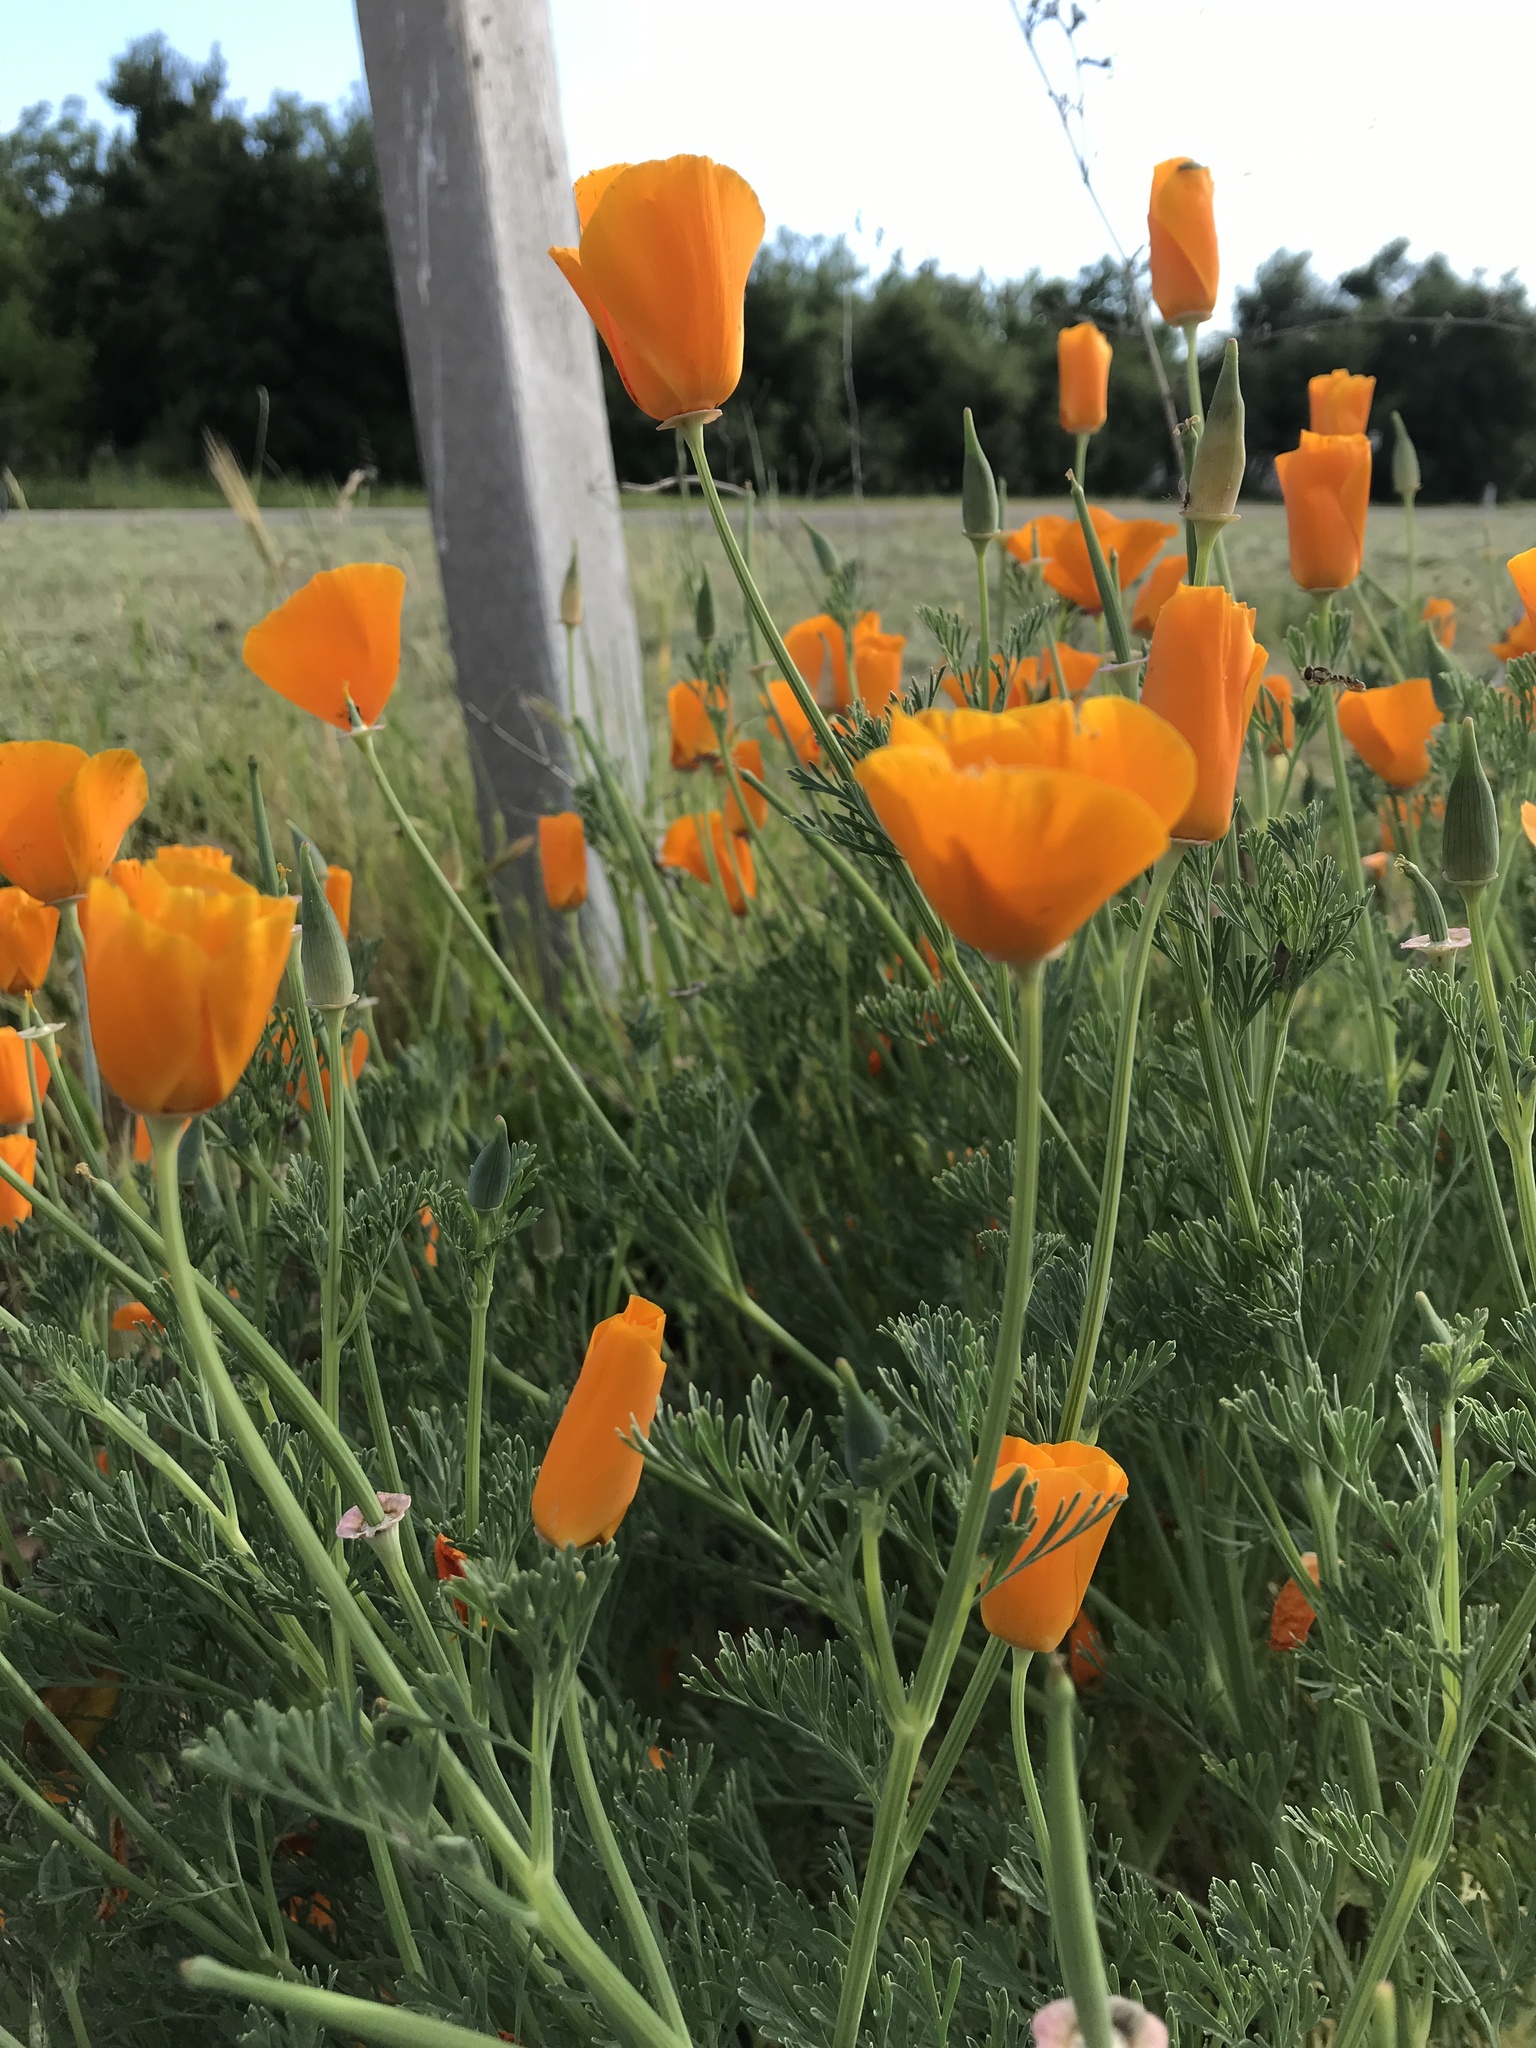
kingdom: Plantae
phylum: Tracheophyta
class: Magnoliopsida
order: Ranunculales
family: Papaveraceae
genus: Eschscholzia
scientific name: Eschscholzia californica
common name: California poppy
